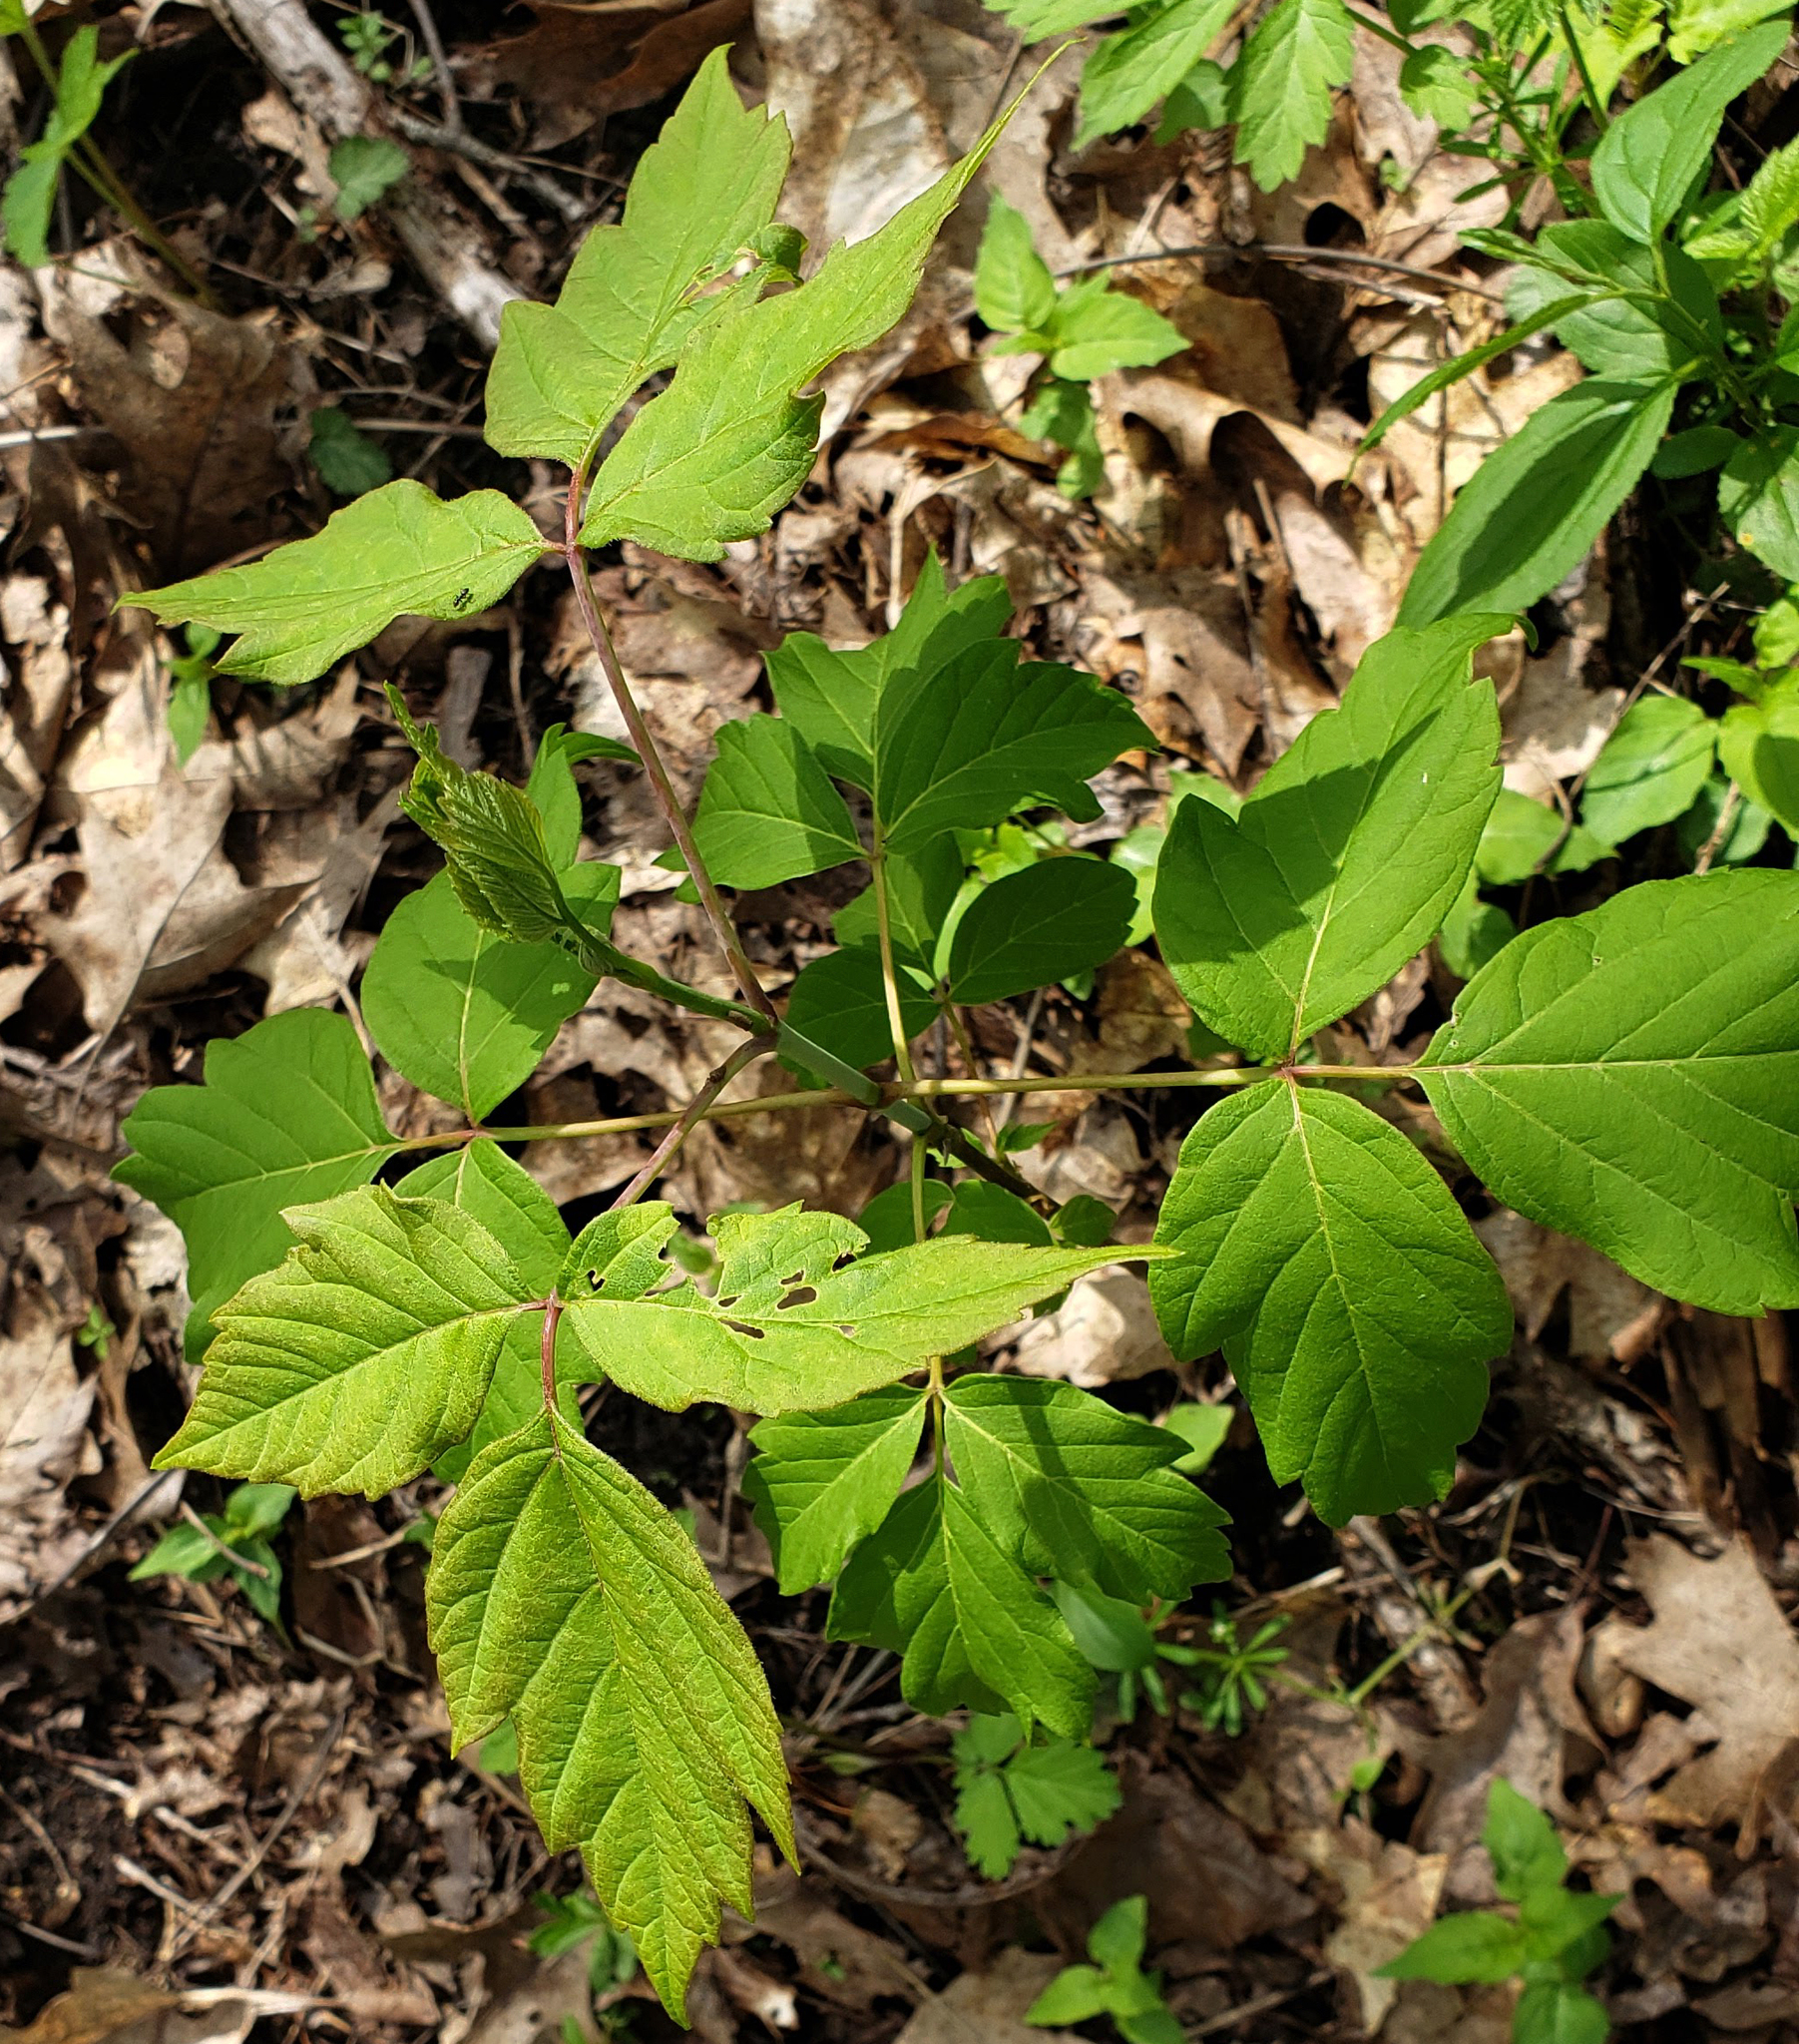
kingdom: Plantae
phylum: Tracheophyta
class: Magnoliopsida
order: Sapindales
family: Sapindaceae
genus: Acer
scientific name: Acer negundo
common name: Ashleaf maple
